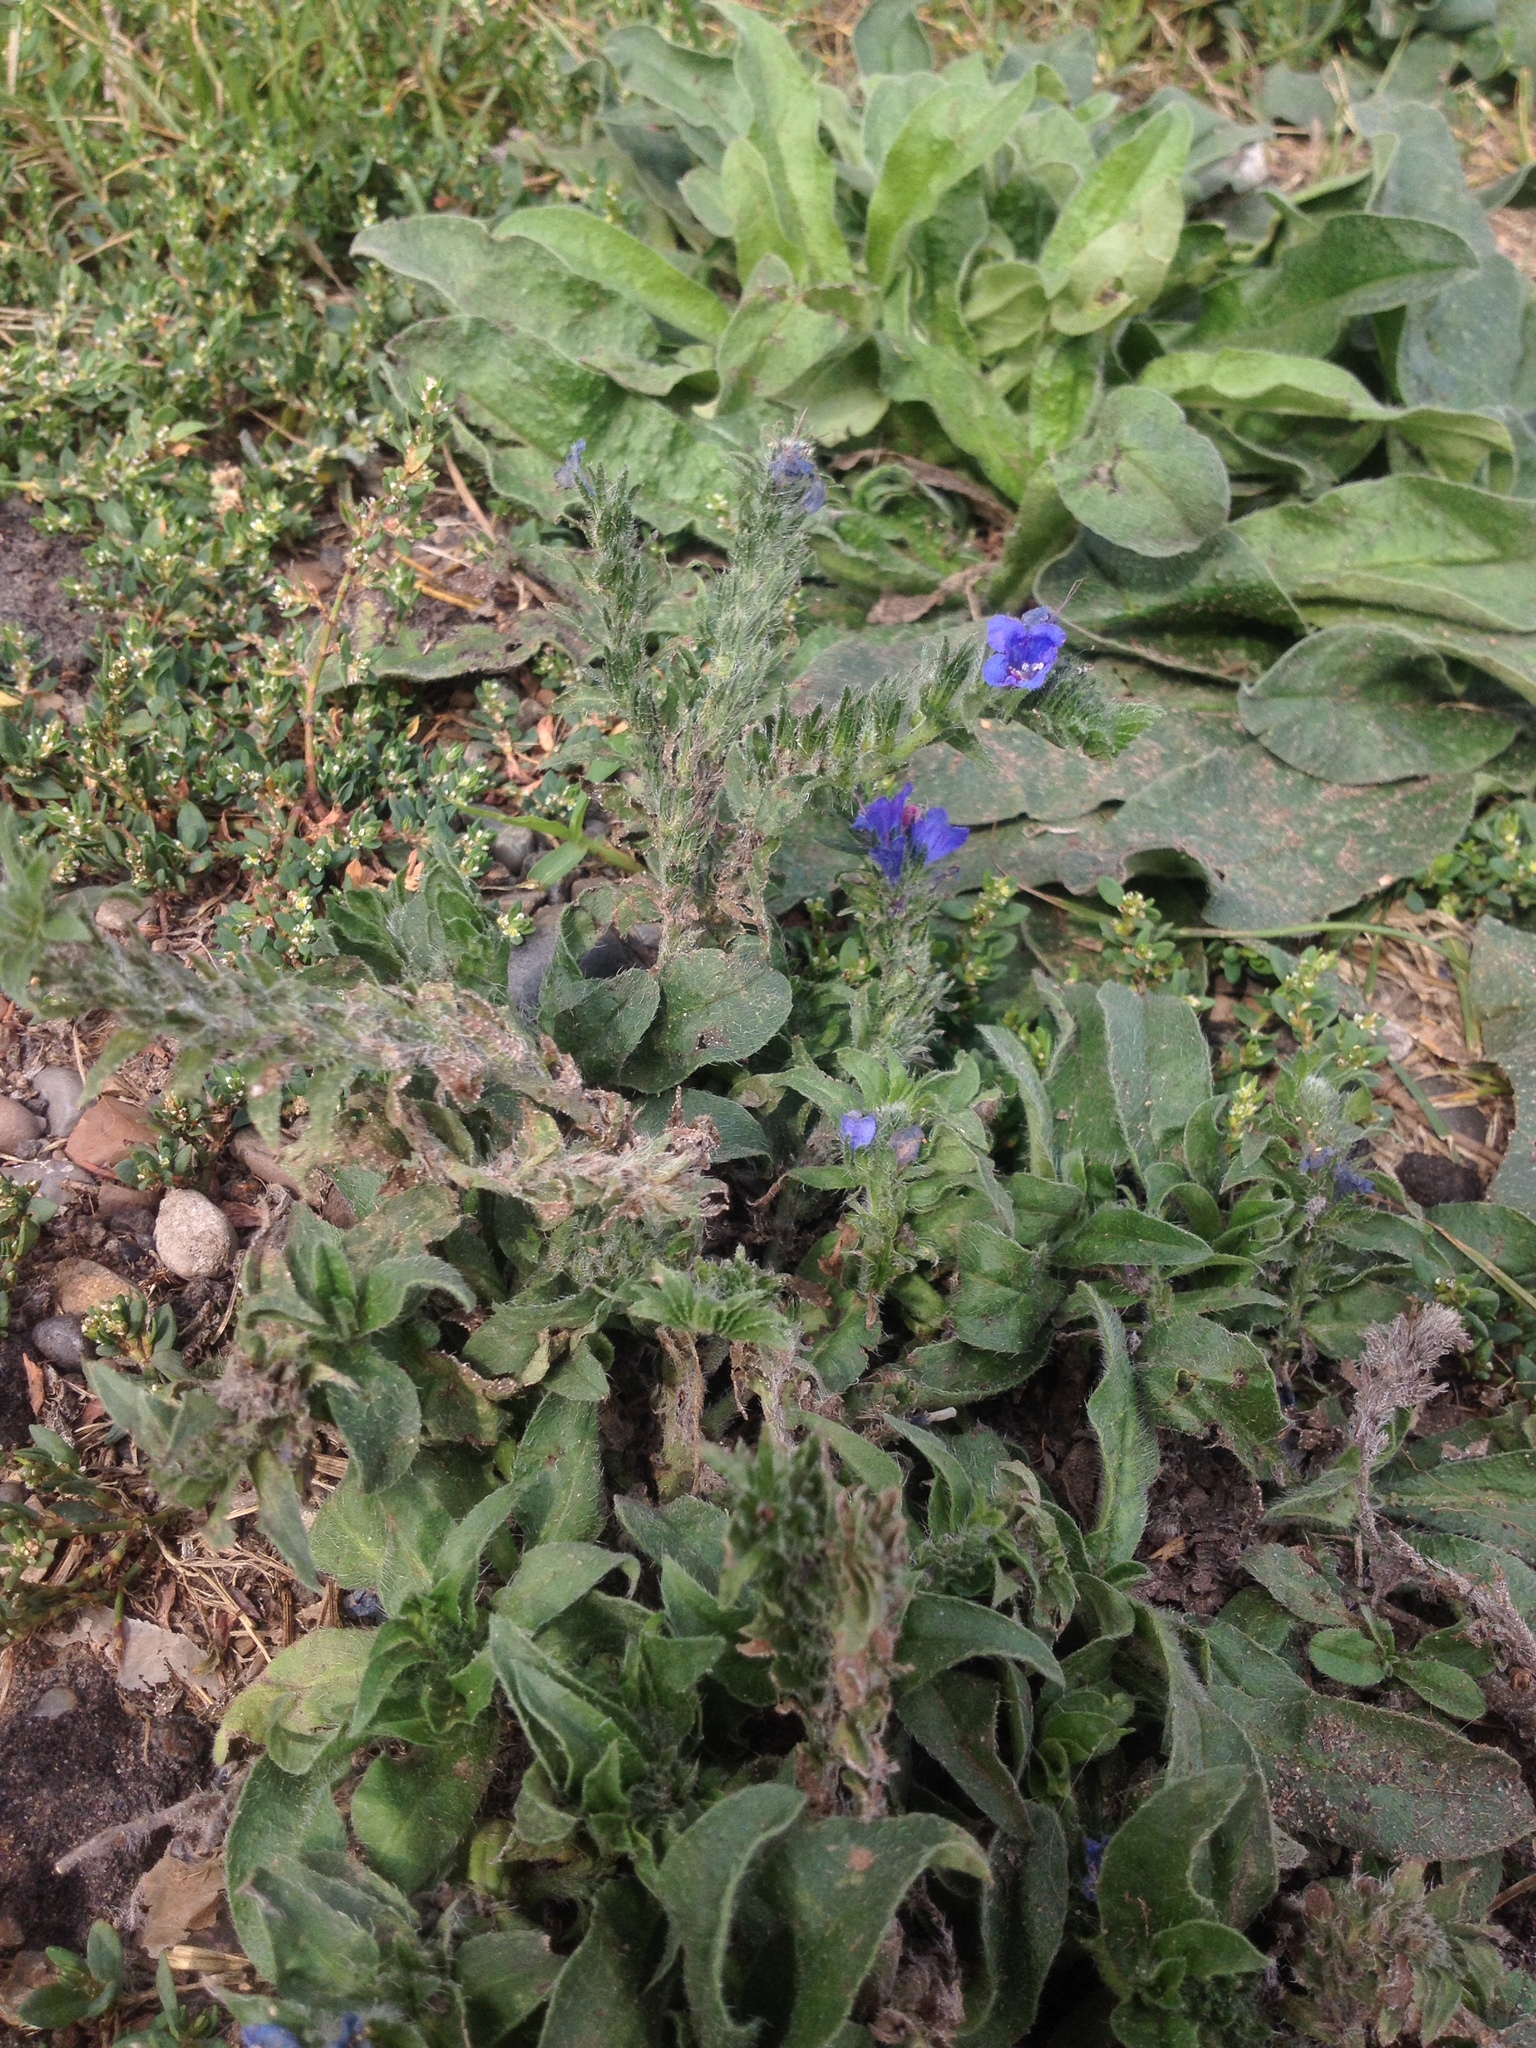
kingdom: Plantae
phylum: Tracheophyta
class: Magnoliopsida
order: Boraginales
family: Boraginaceae
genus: Echium
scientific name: Echium vulgare
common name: Common viper's bugloss
